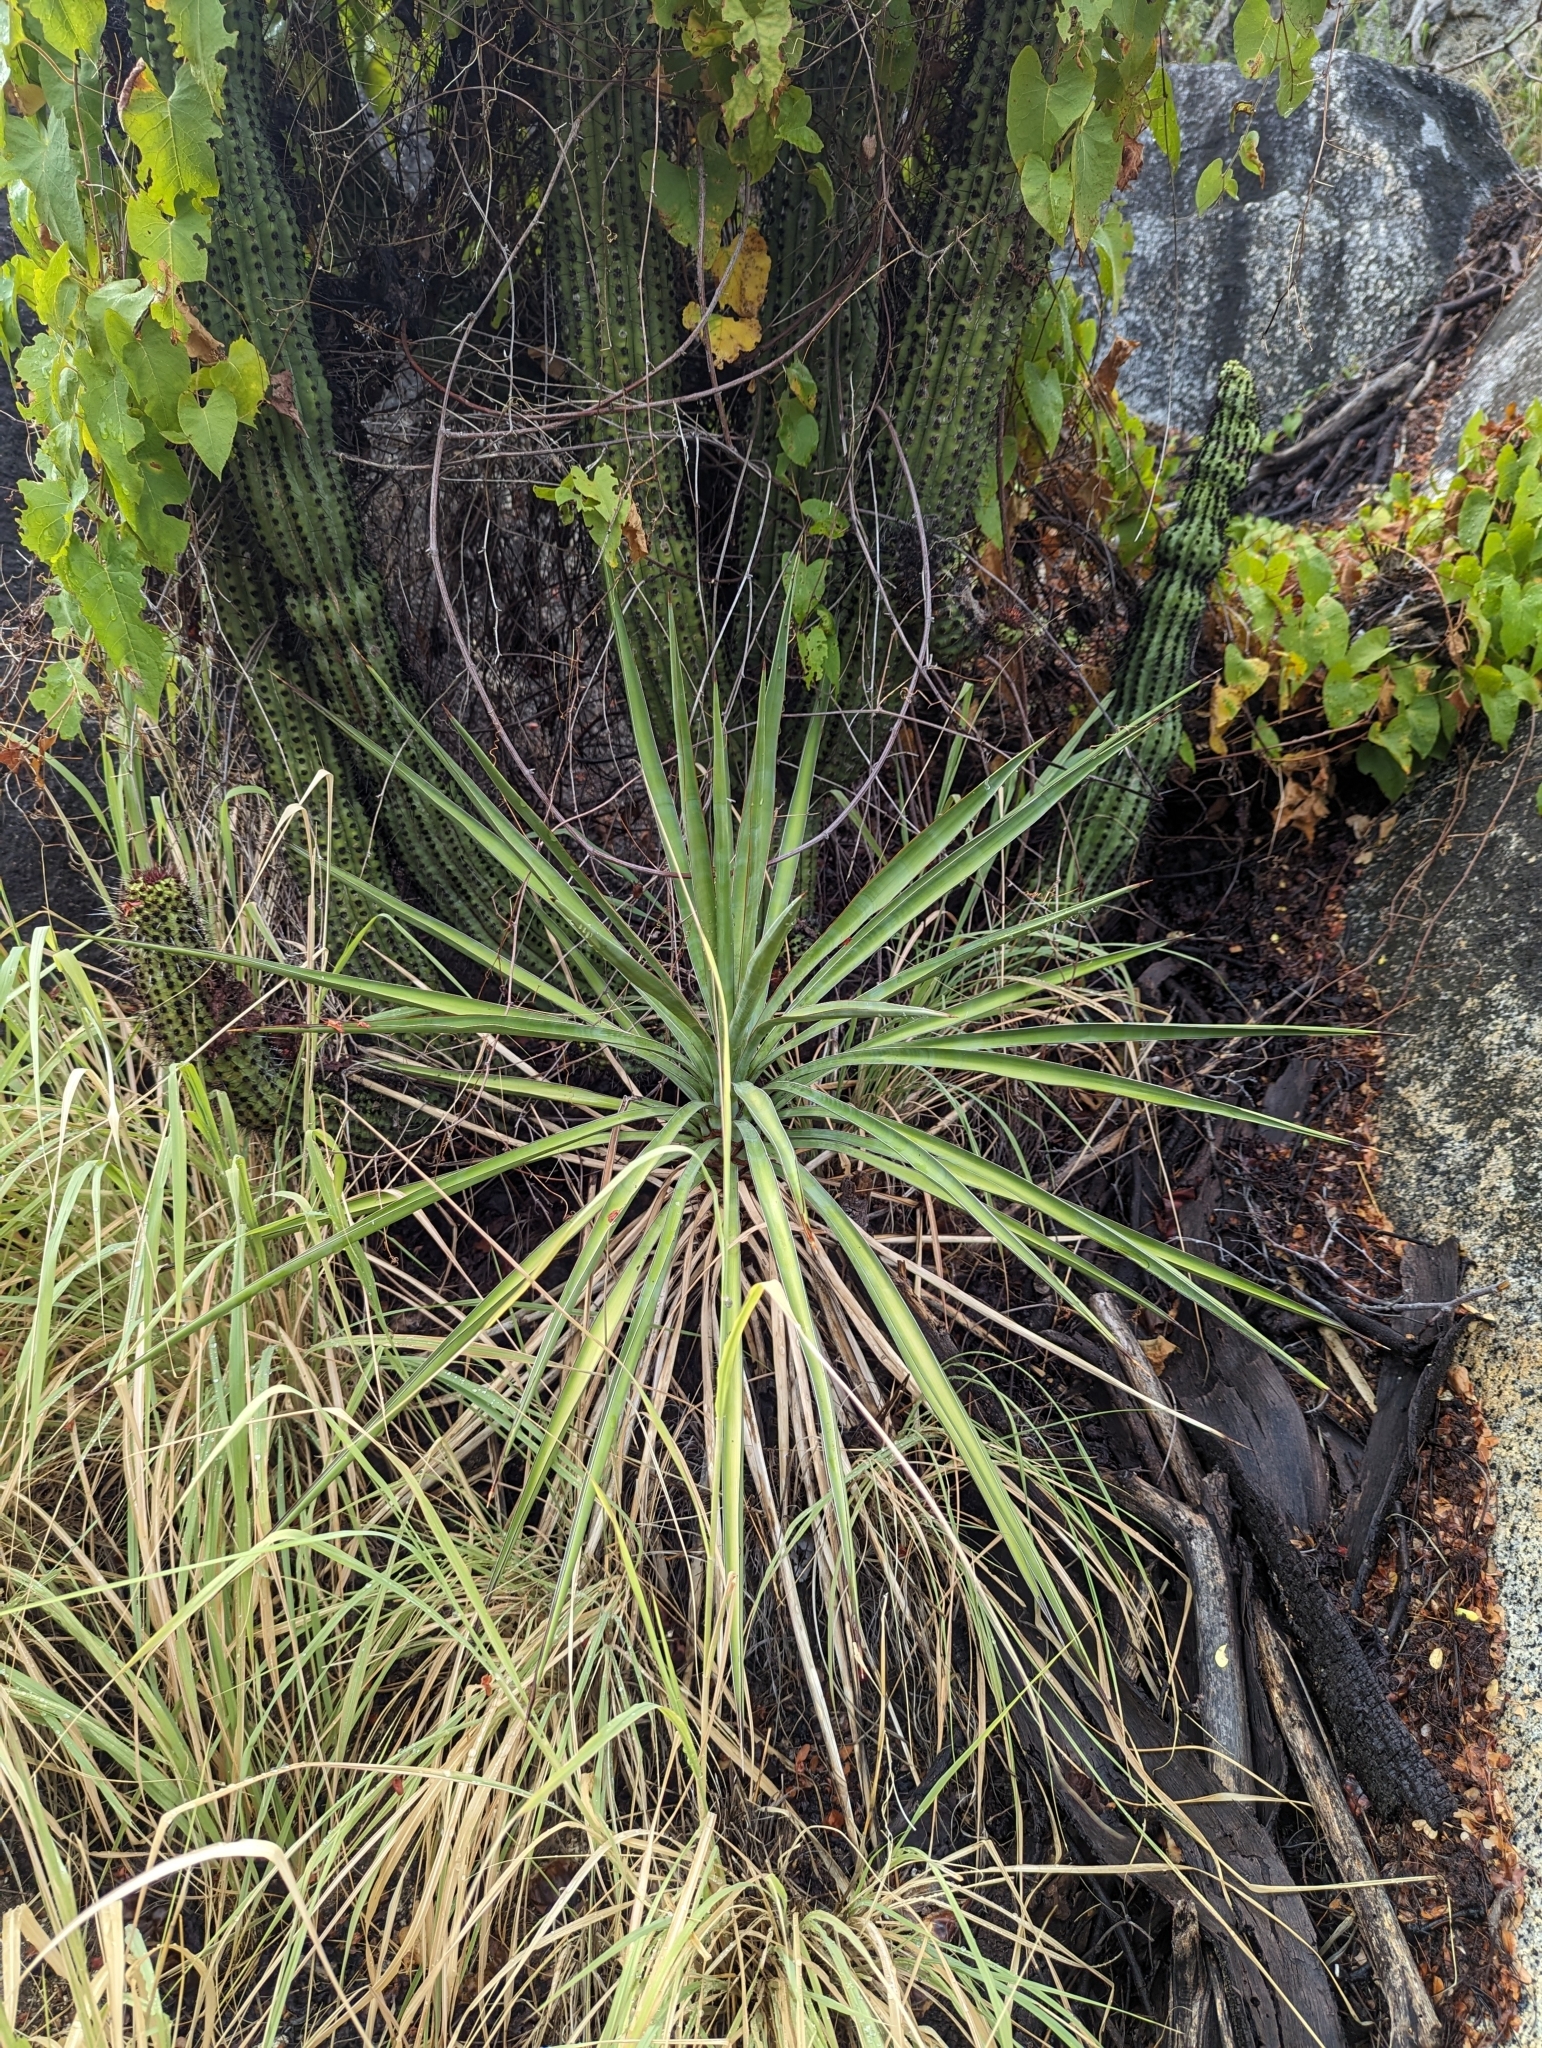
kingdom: Plantae
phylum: Tracheophyta
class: Liliopsida
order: Asparagales
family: Asparagaceae
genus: Yucca
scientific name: Yucca capensis
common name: Cape region yucca
